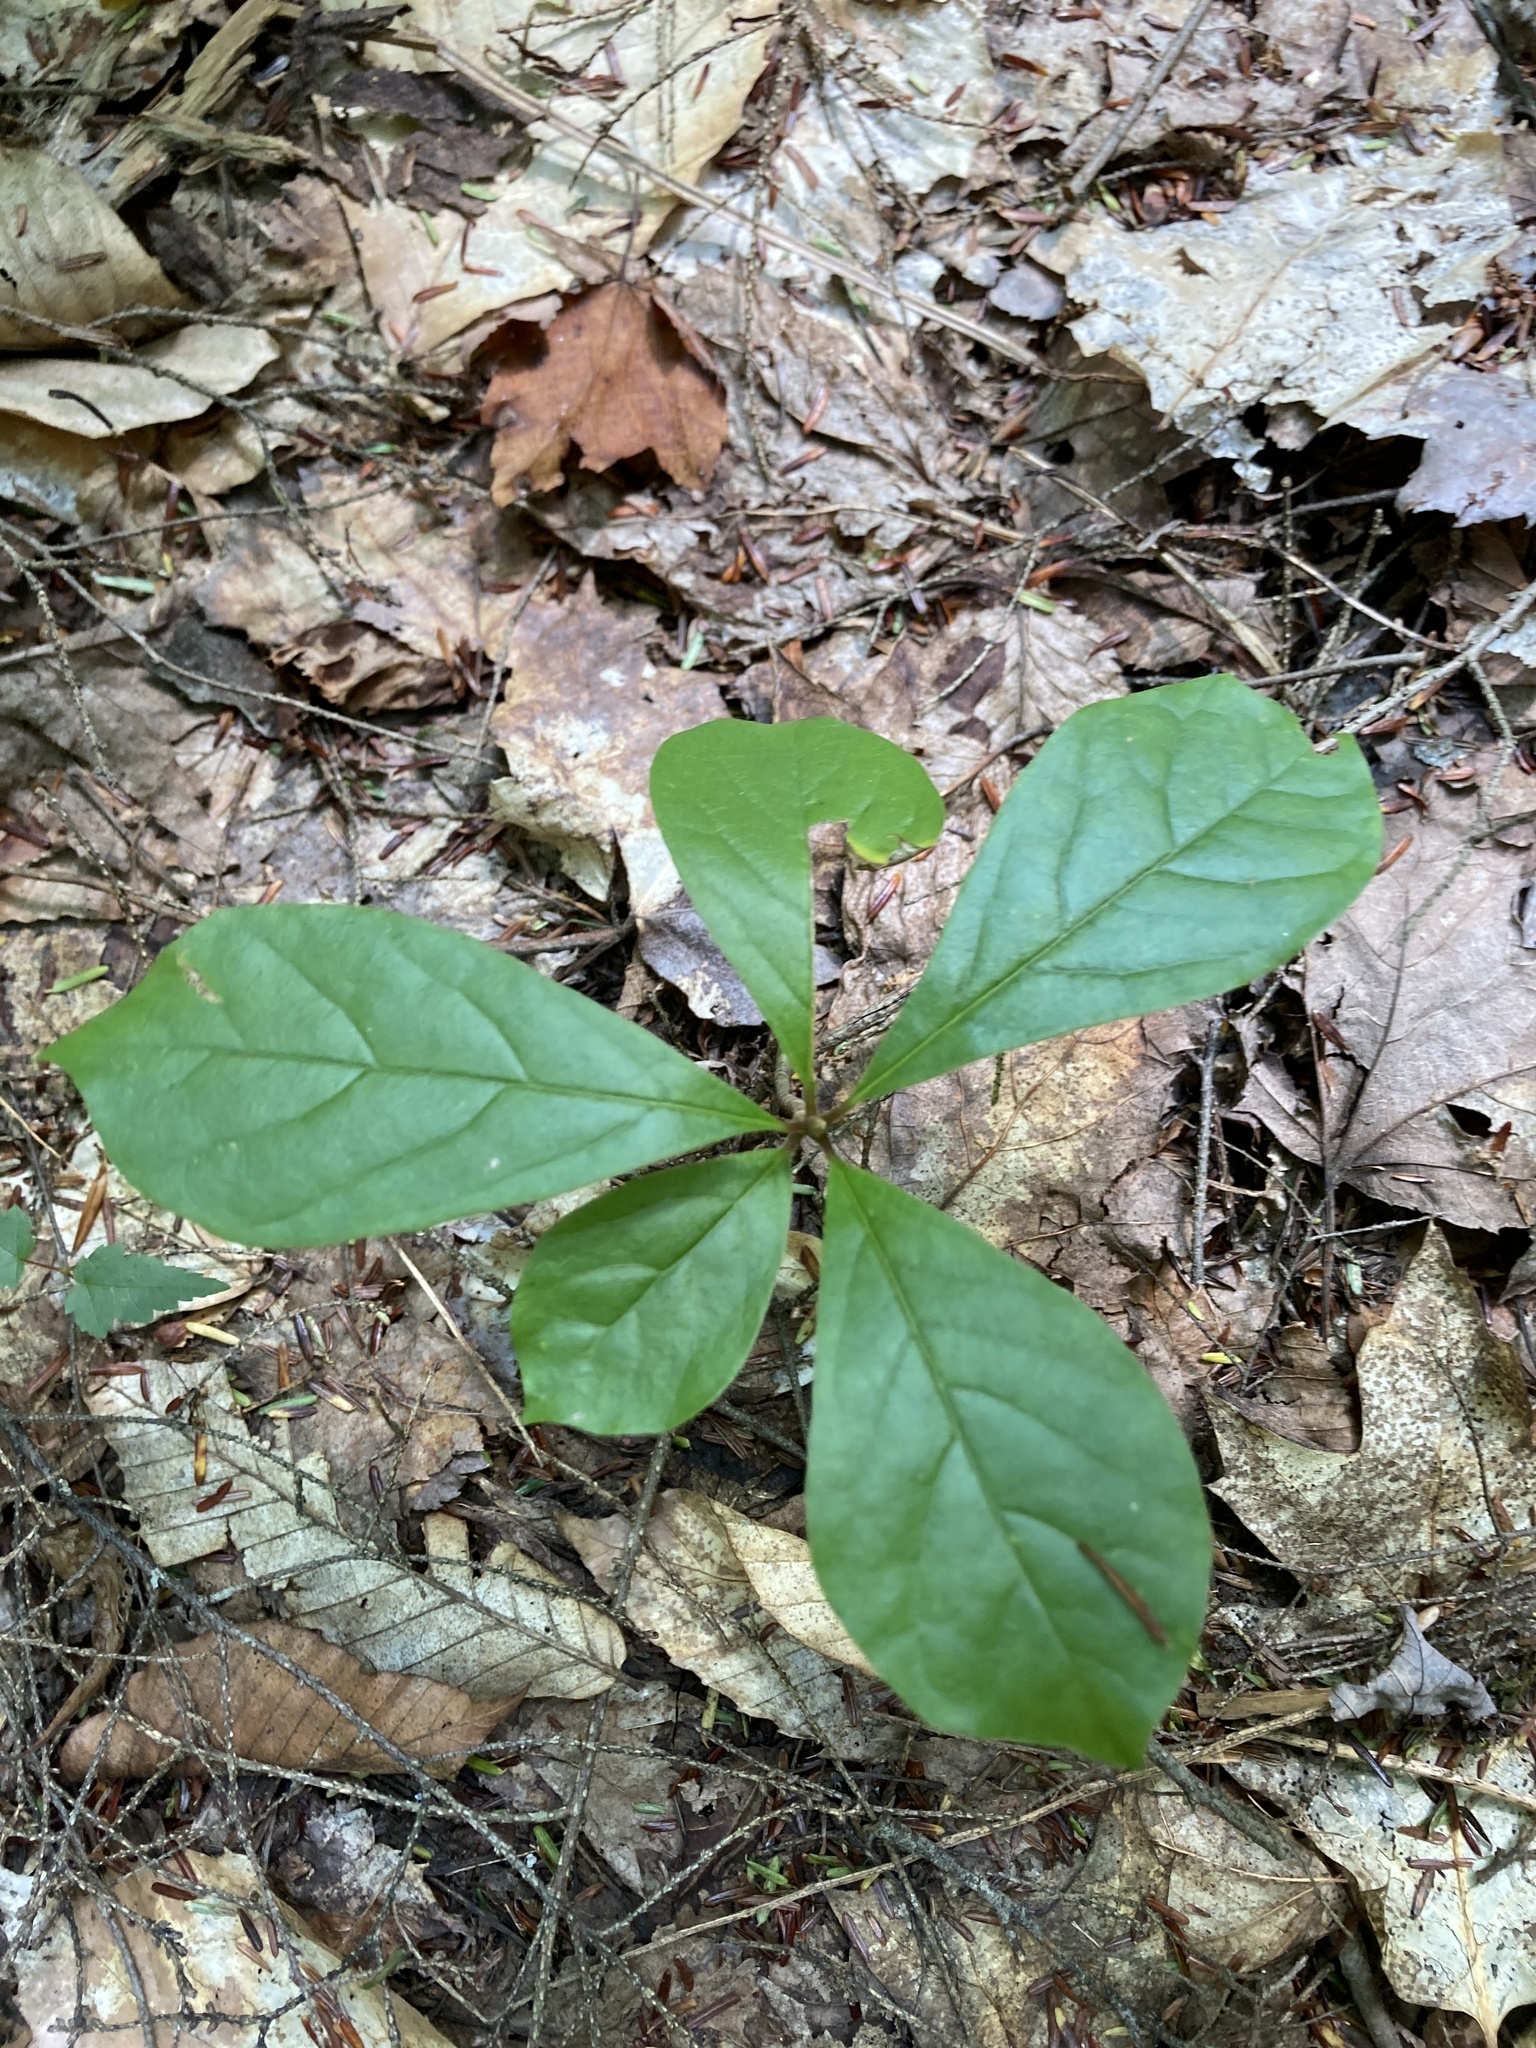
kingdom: Plantae
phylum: Tracheophyta
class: Magnoliopsida
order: Cornales
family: Nyssaceae
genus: Nyssa
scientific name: Nyssa sylvatica
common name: Black tupelo
